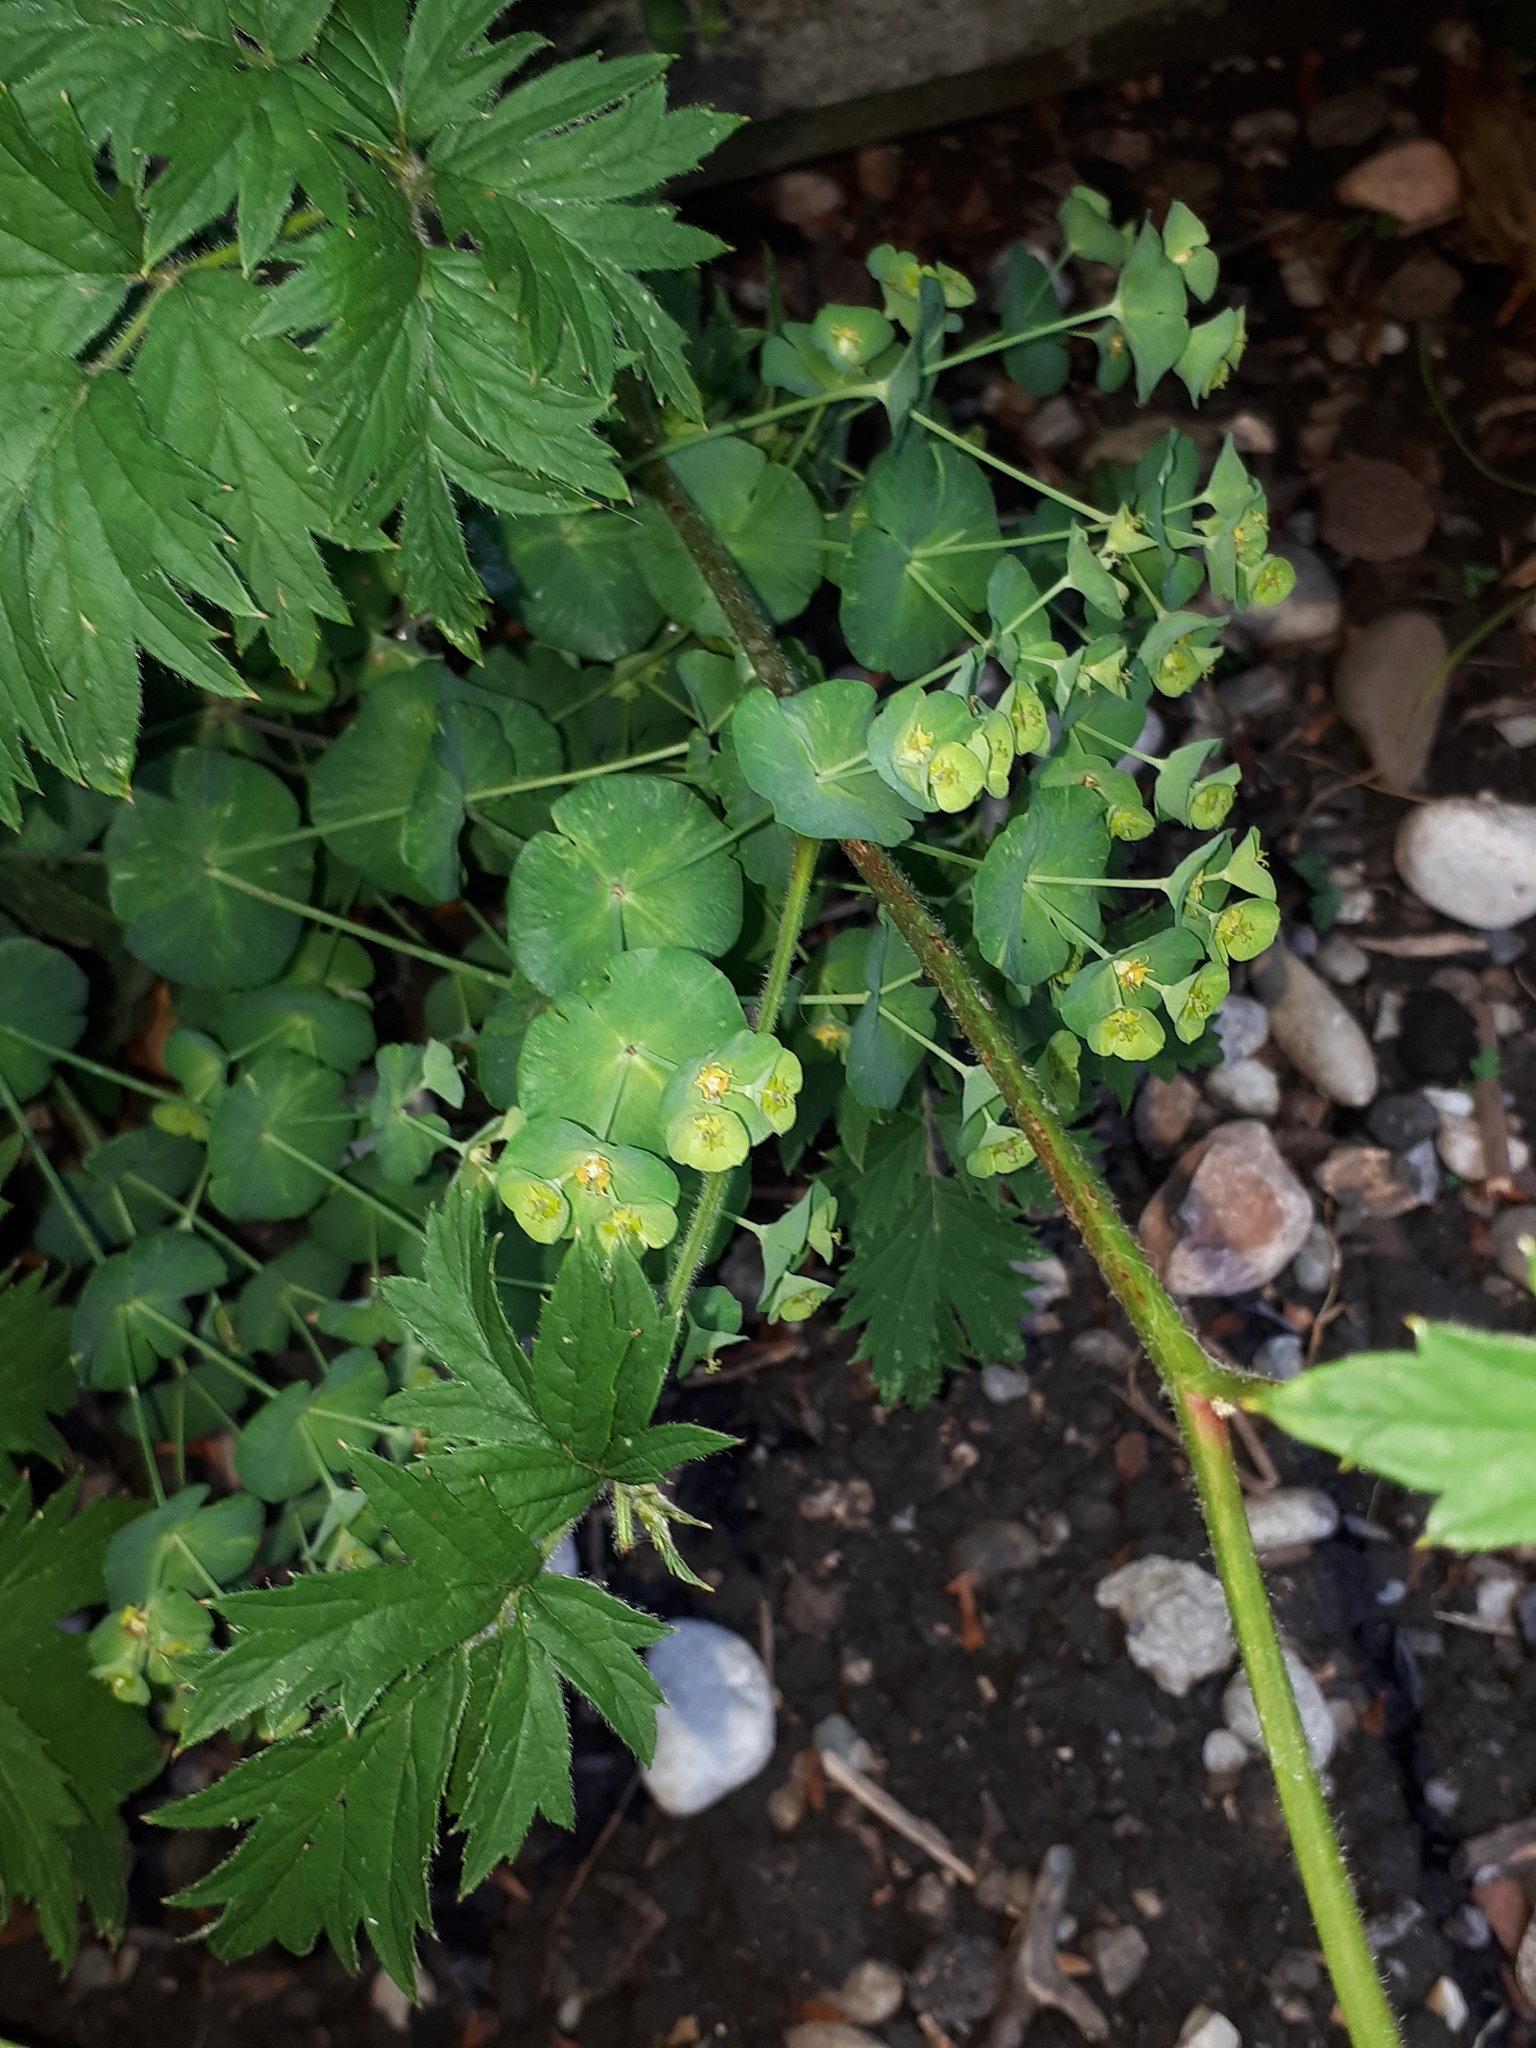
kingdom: Plantae
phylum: Tracheophyta
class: Magnoliopsida
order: Malpighiales
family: Euphorbiaceae
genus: Euphorbia
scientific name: Euphorbia amygdaloides
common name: Wood spurge
